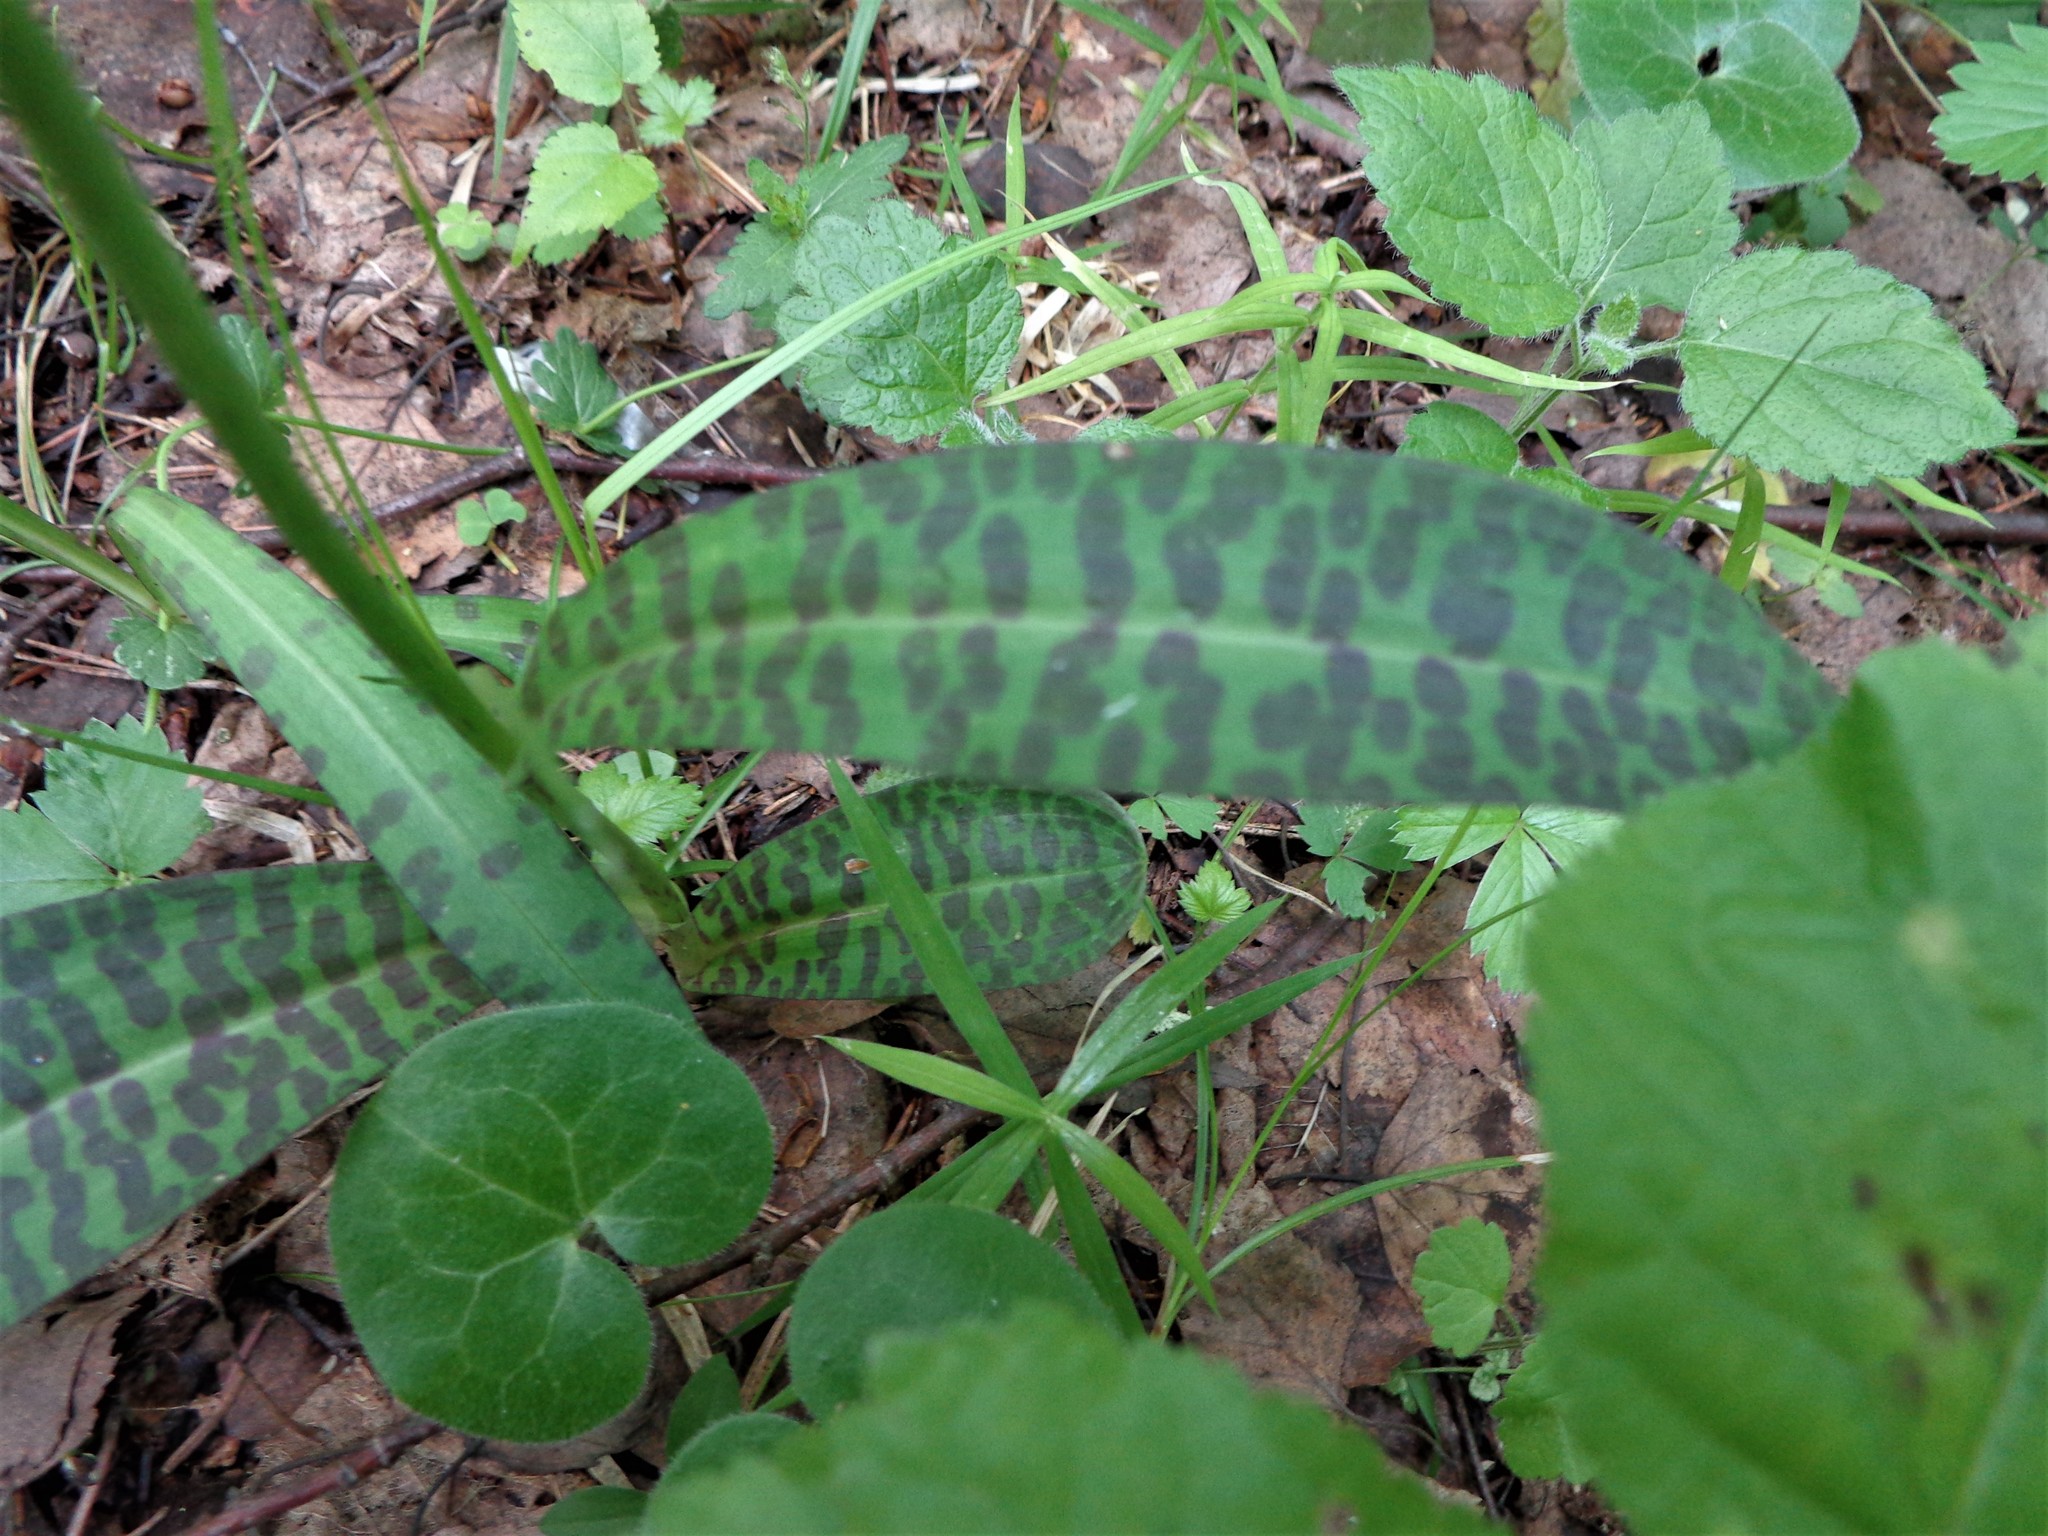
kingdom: Plantae
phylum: Tracheophyta
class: Liliopsida
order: Asparagales
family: Orchidaceae
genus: Dactylorhiza
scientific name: Dactylorhiza maculata
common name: Heath spotted-orchid
